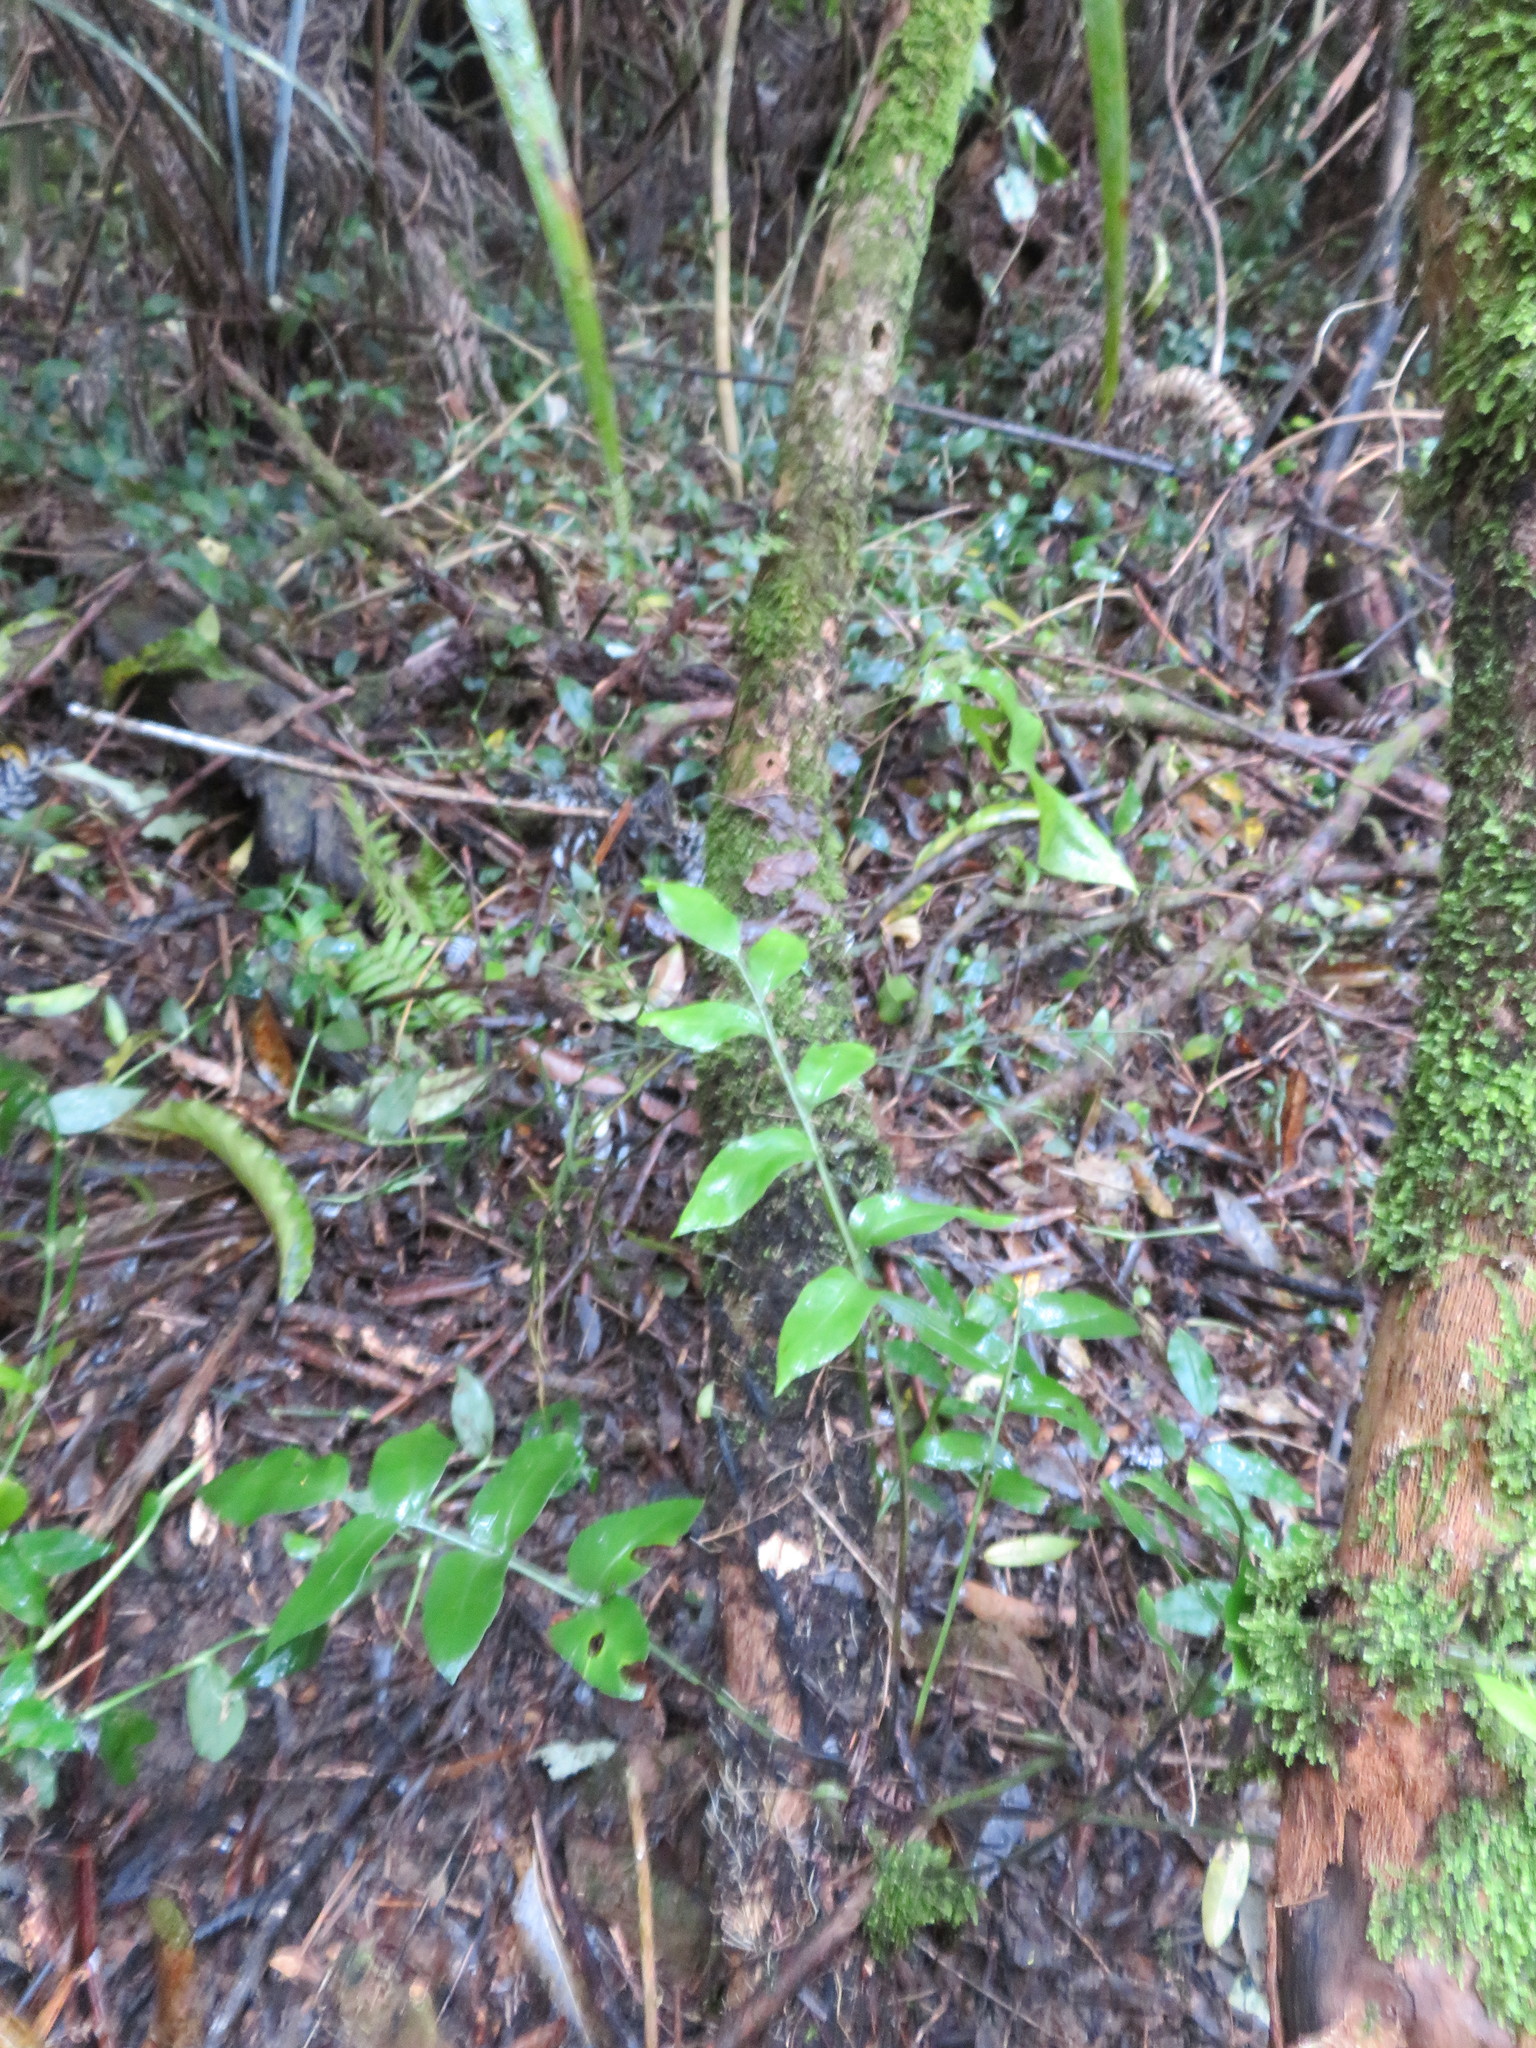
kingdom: Plantae
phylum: Tracheophyta
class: Polypodiopsida
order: Polypodiales
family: Aspleniaceae
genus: Asplenium
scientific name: Asplenium oblongifolium
